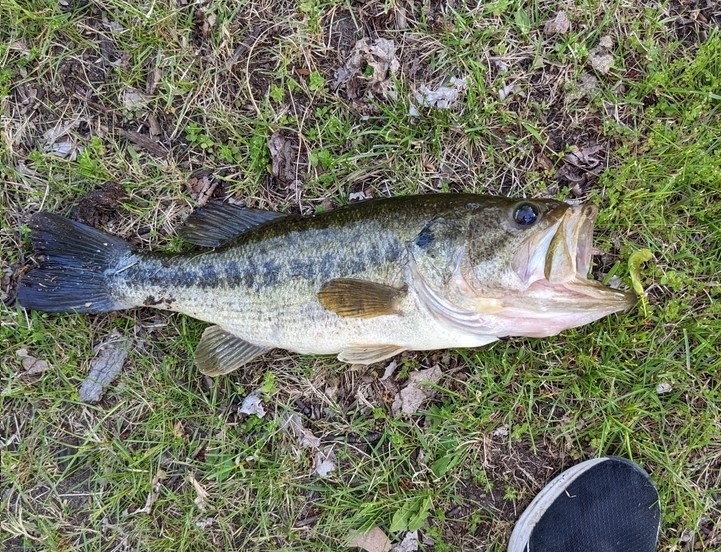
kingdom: Animalia
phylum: Chordata
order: Perciformes
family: Centrarchidae
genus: Micropterus
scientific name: Micropterus
